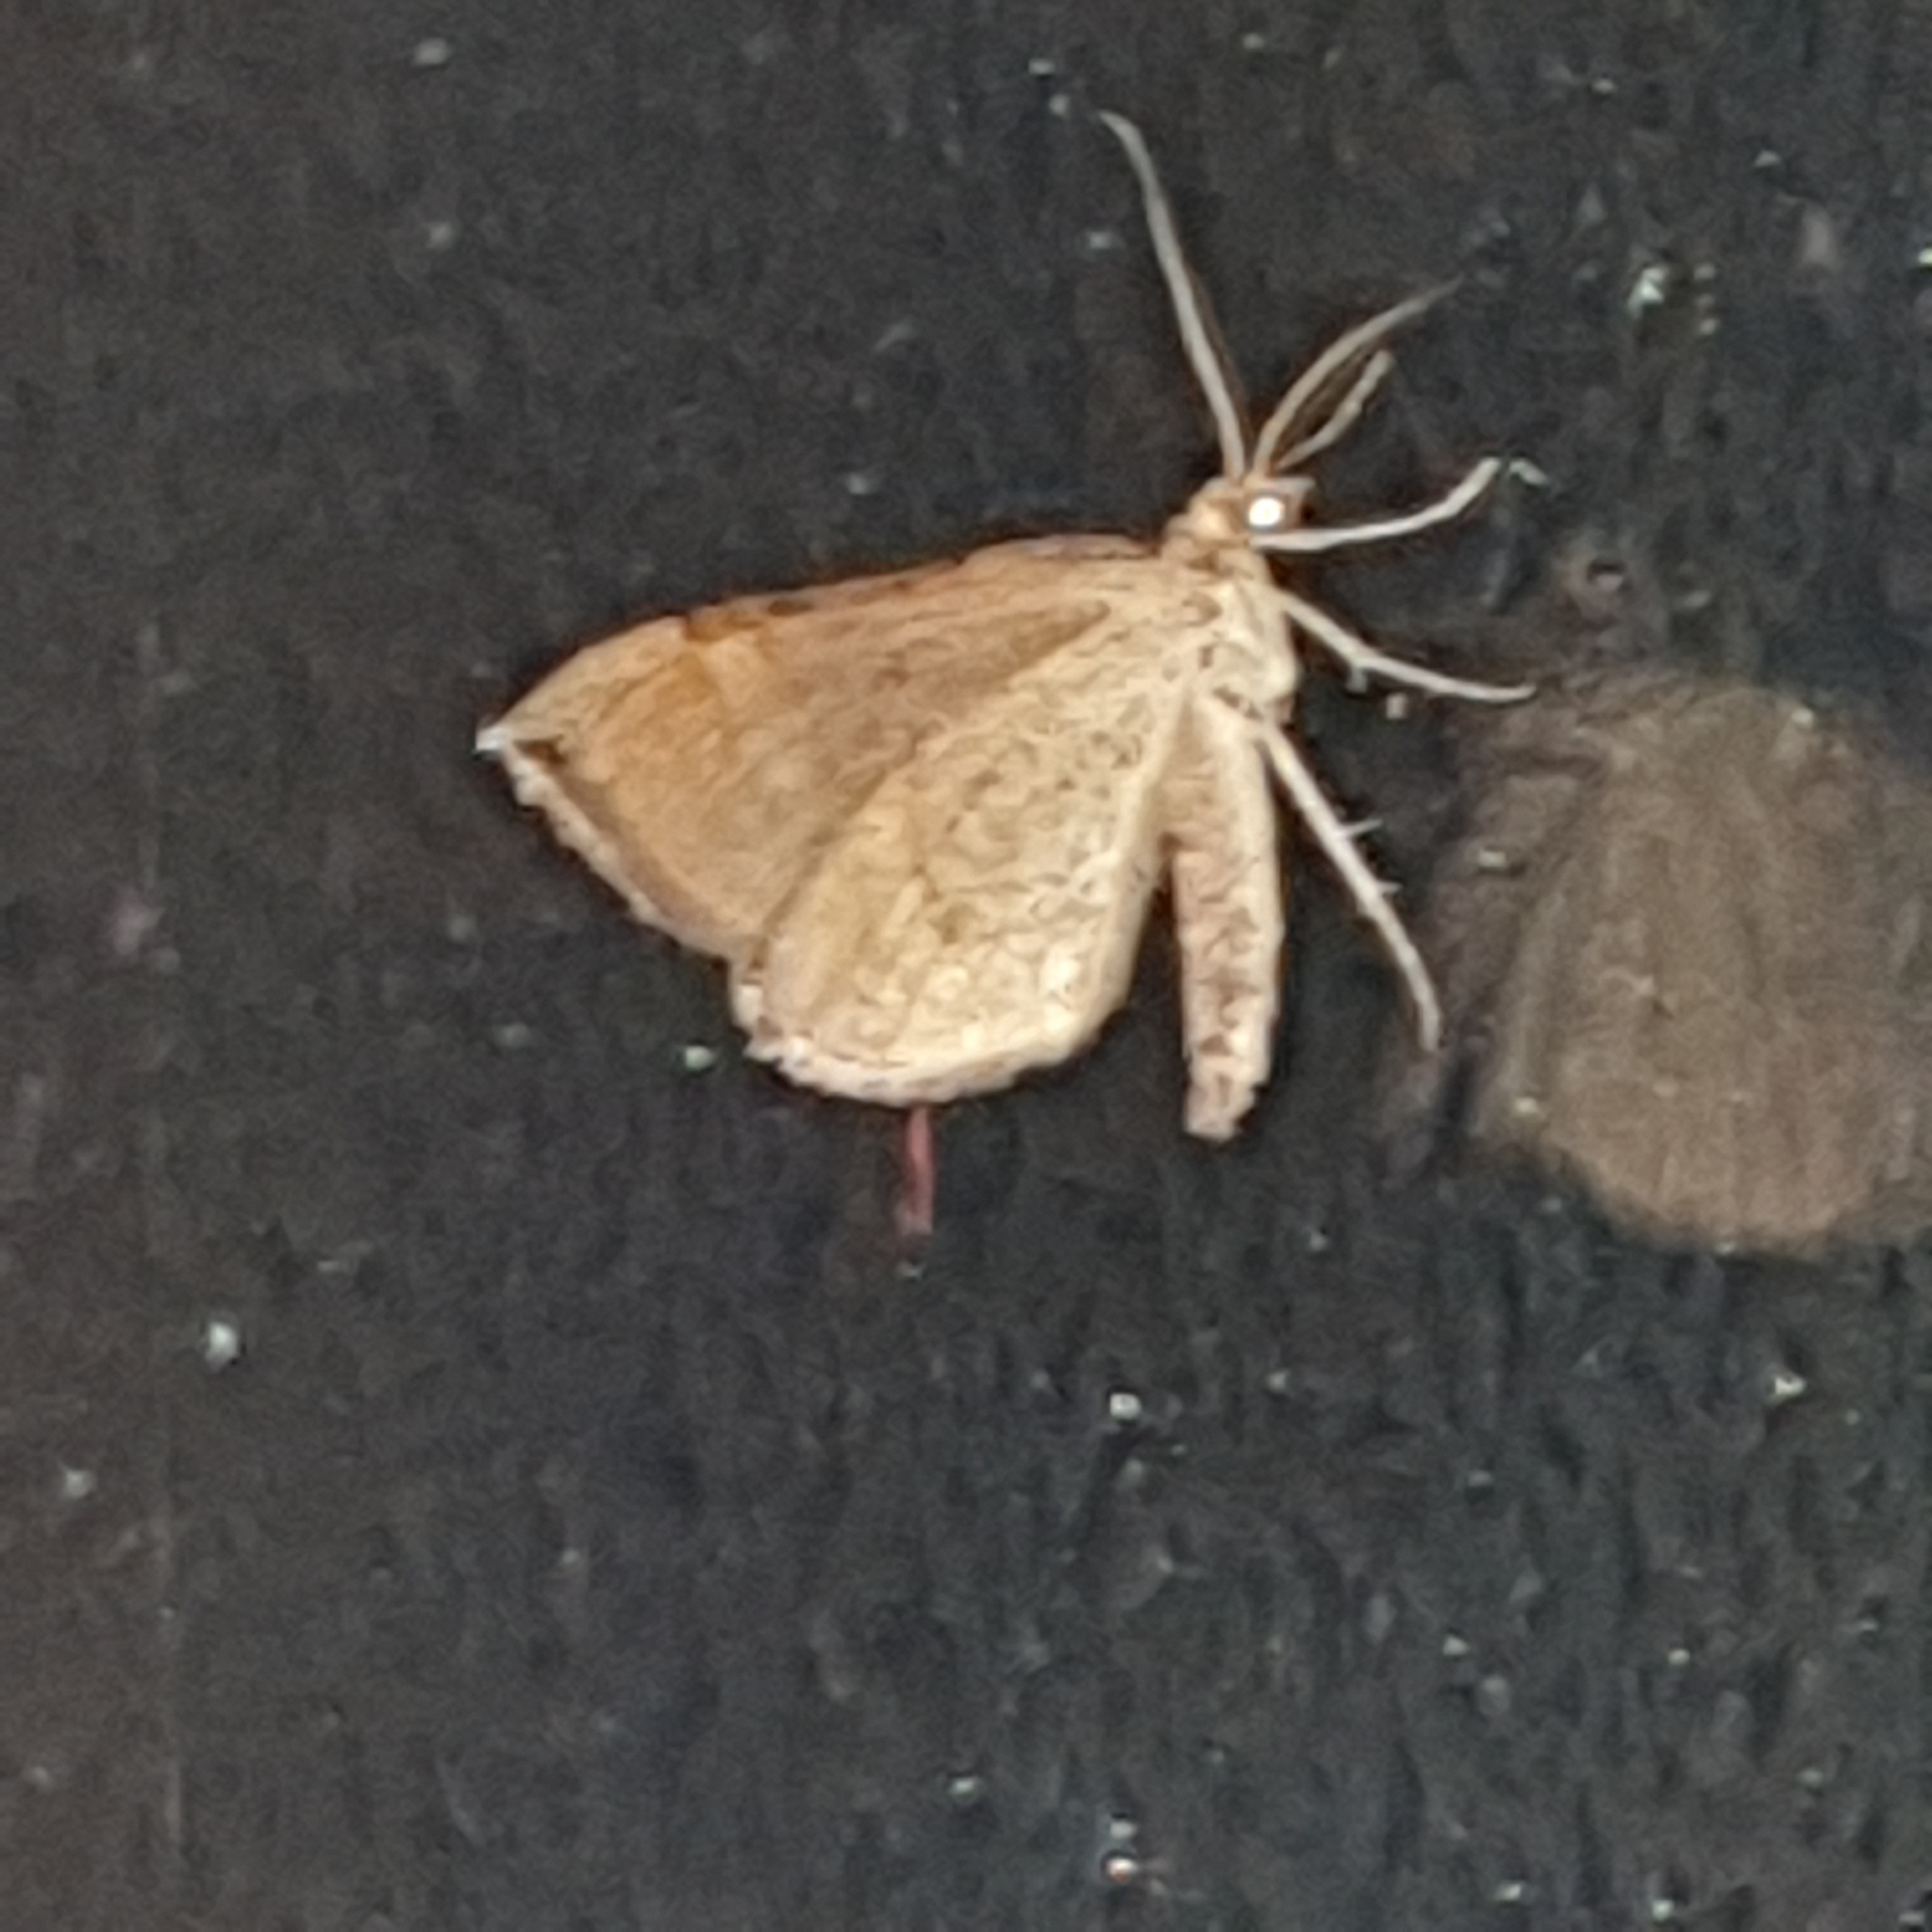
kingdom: Animalia
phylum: Arthropoda
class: Insecta
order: Lepidoptera
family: Geometridae
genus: Scotopteryx
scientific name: Scotopteryx chenopodiata
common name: Shaded broad-bar
